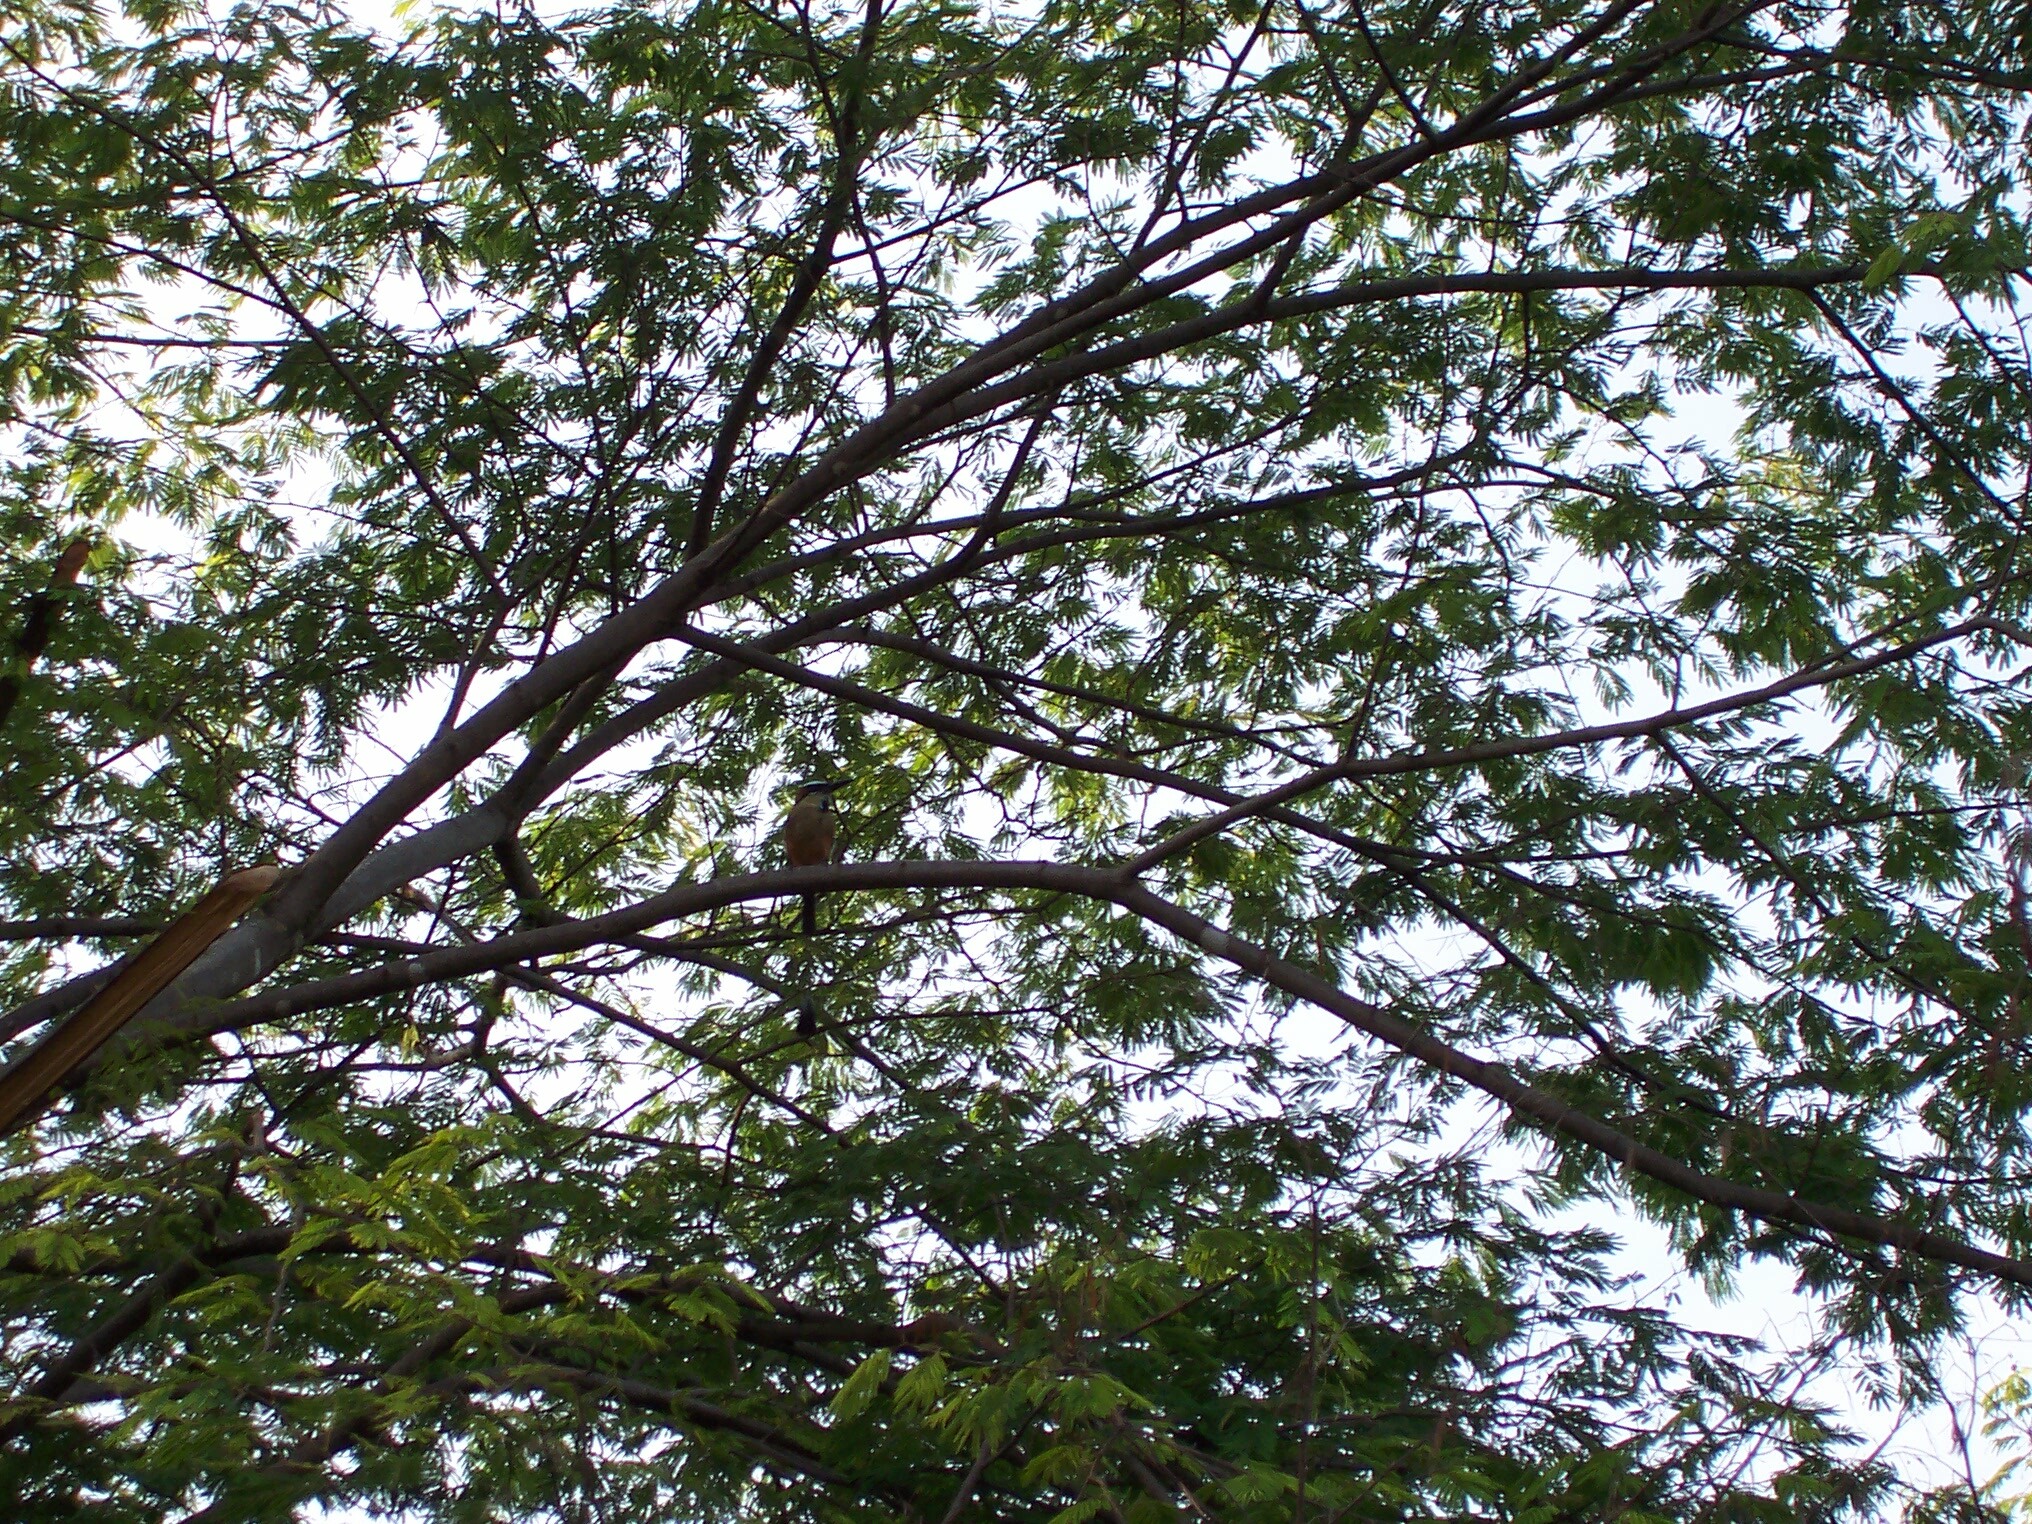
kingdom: Animalia
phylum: Chordata
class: Aves
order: Coraciiformes
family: Momotidae
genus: Eumomota
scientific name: Eumomota superciliosa
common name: Turquoise-browed motmot
